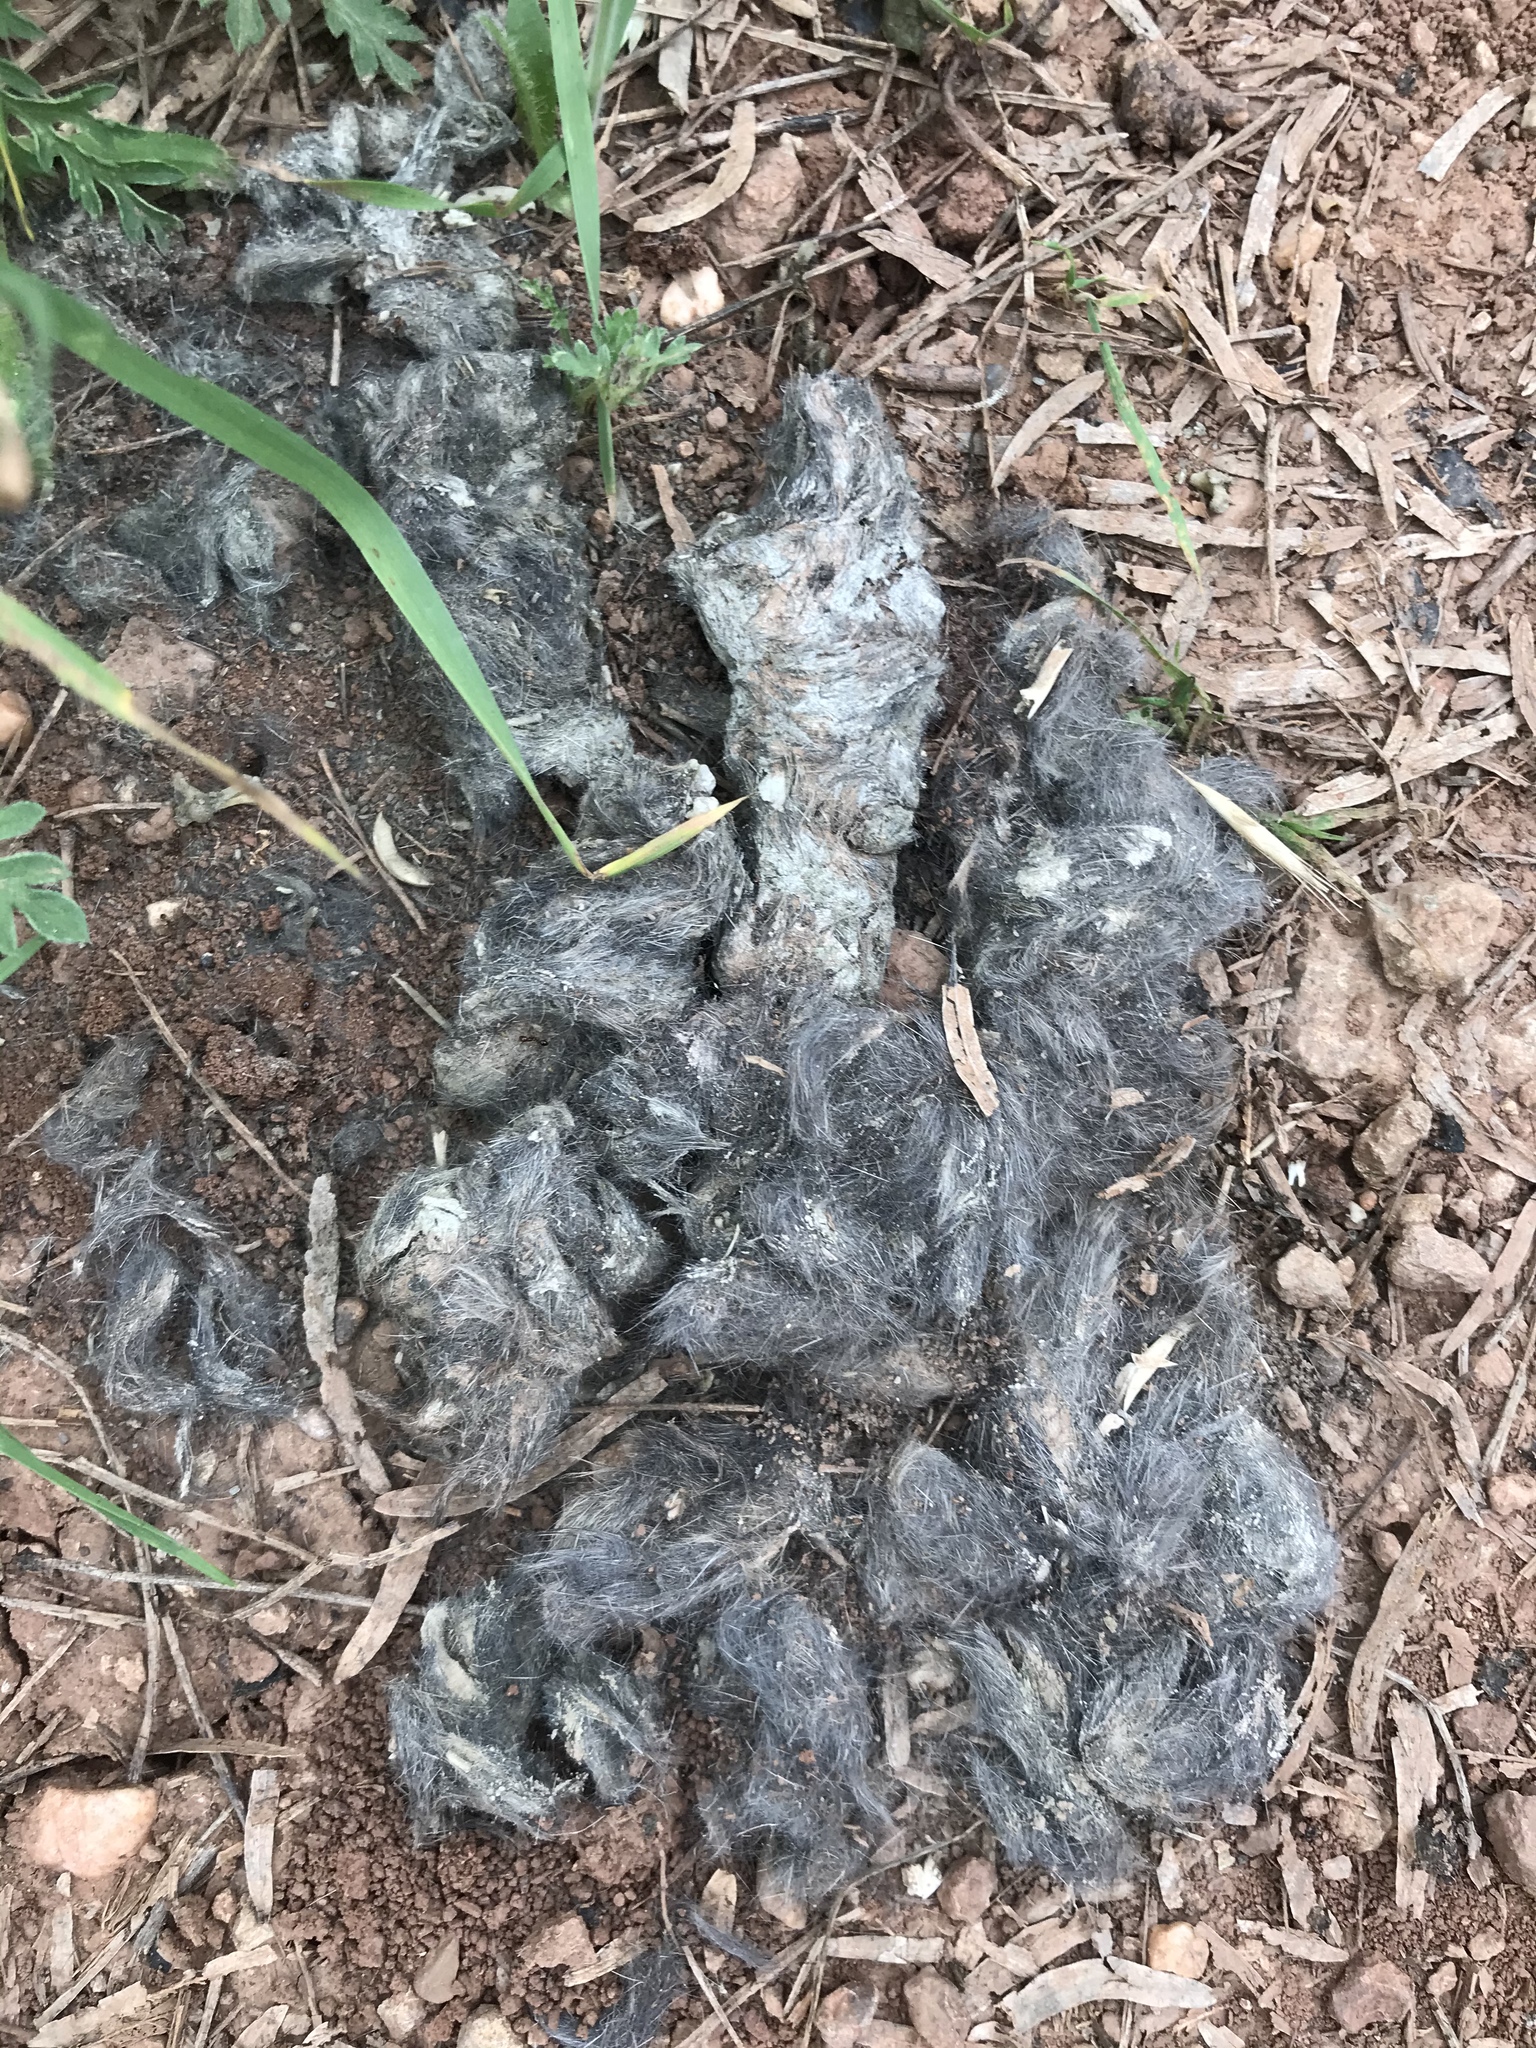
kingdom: Animalia
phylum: Chordata
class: Mammalia
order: Carnivora
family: Canidae
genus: Canis
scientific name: Canis latrans
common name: Coyote
